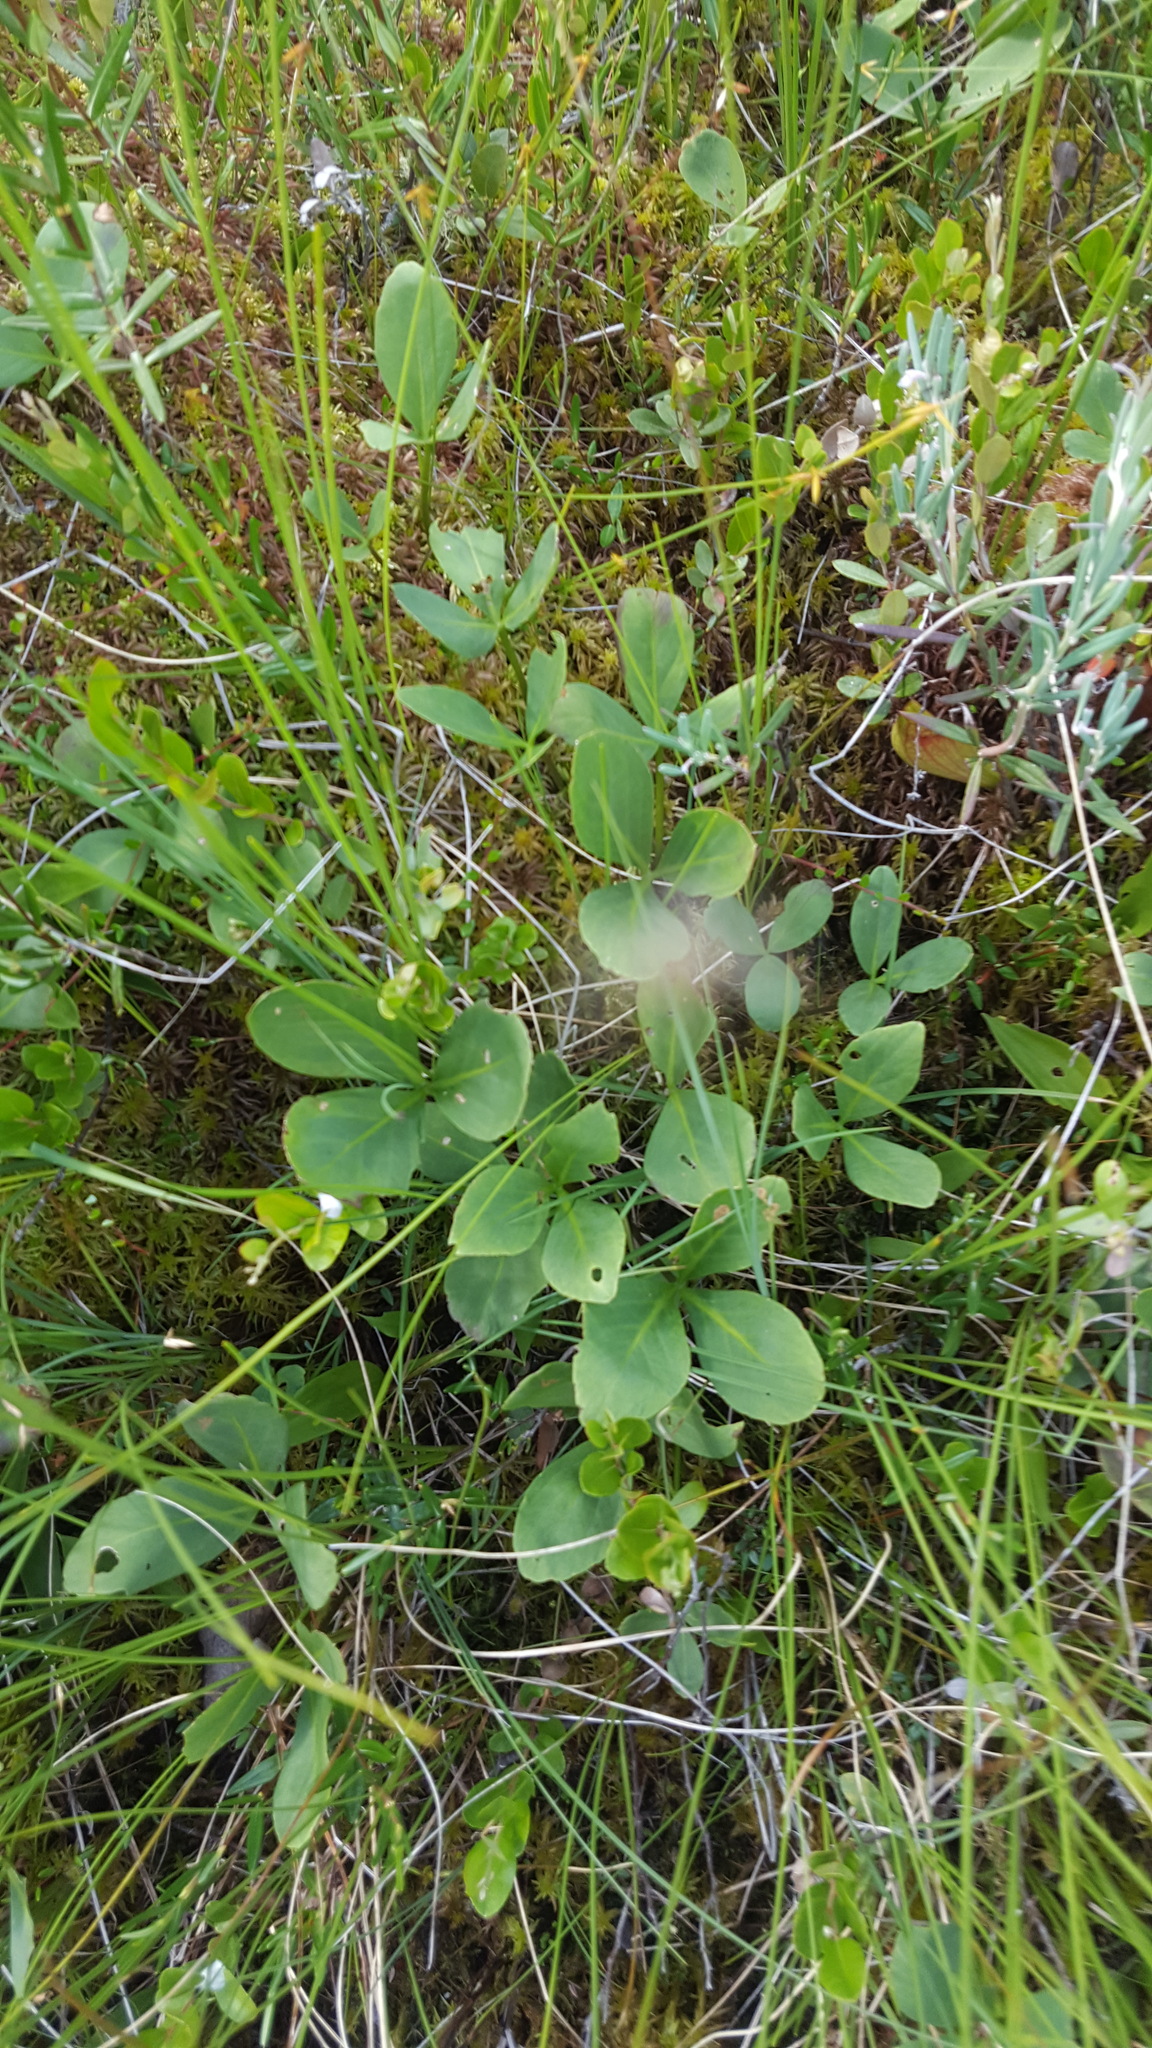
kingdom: Plantae
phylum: Tracheophyta
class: Magnoliopsida
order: Asterales
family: Menyanthaceae
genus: Menyanthes
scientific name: Menyanthes trifoliata
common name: Bogbean
